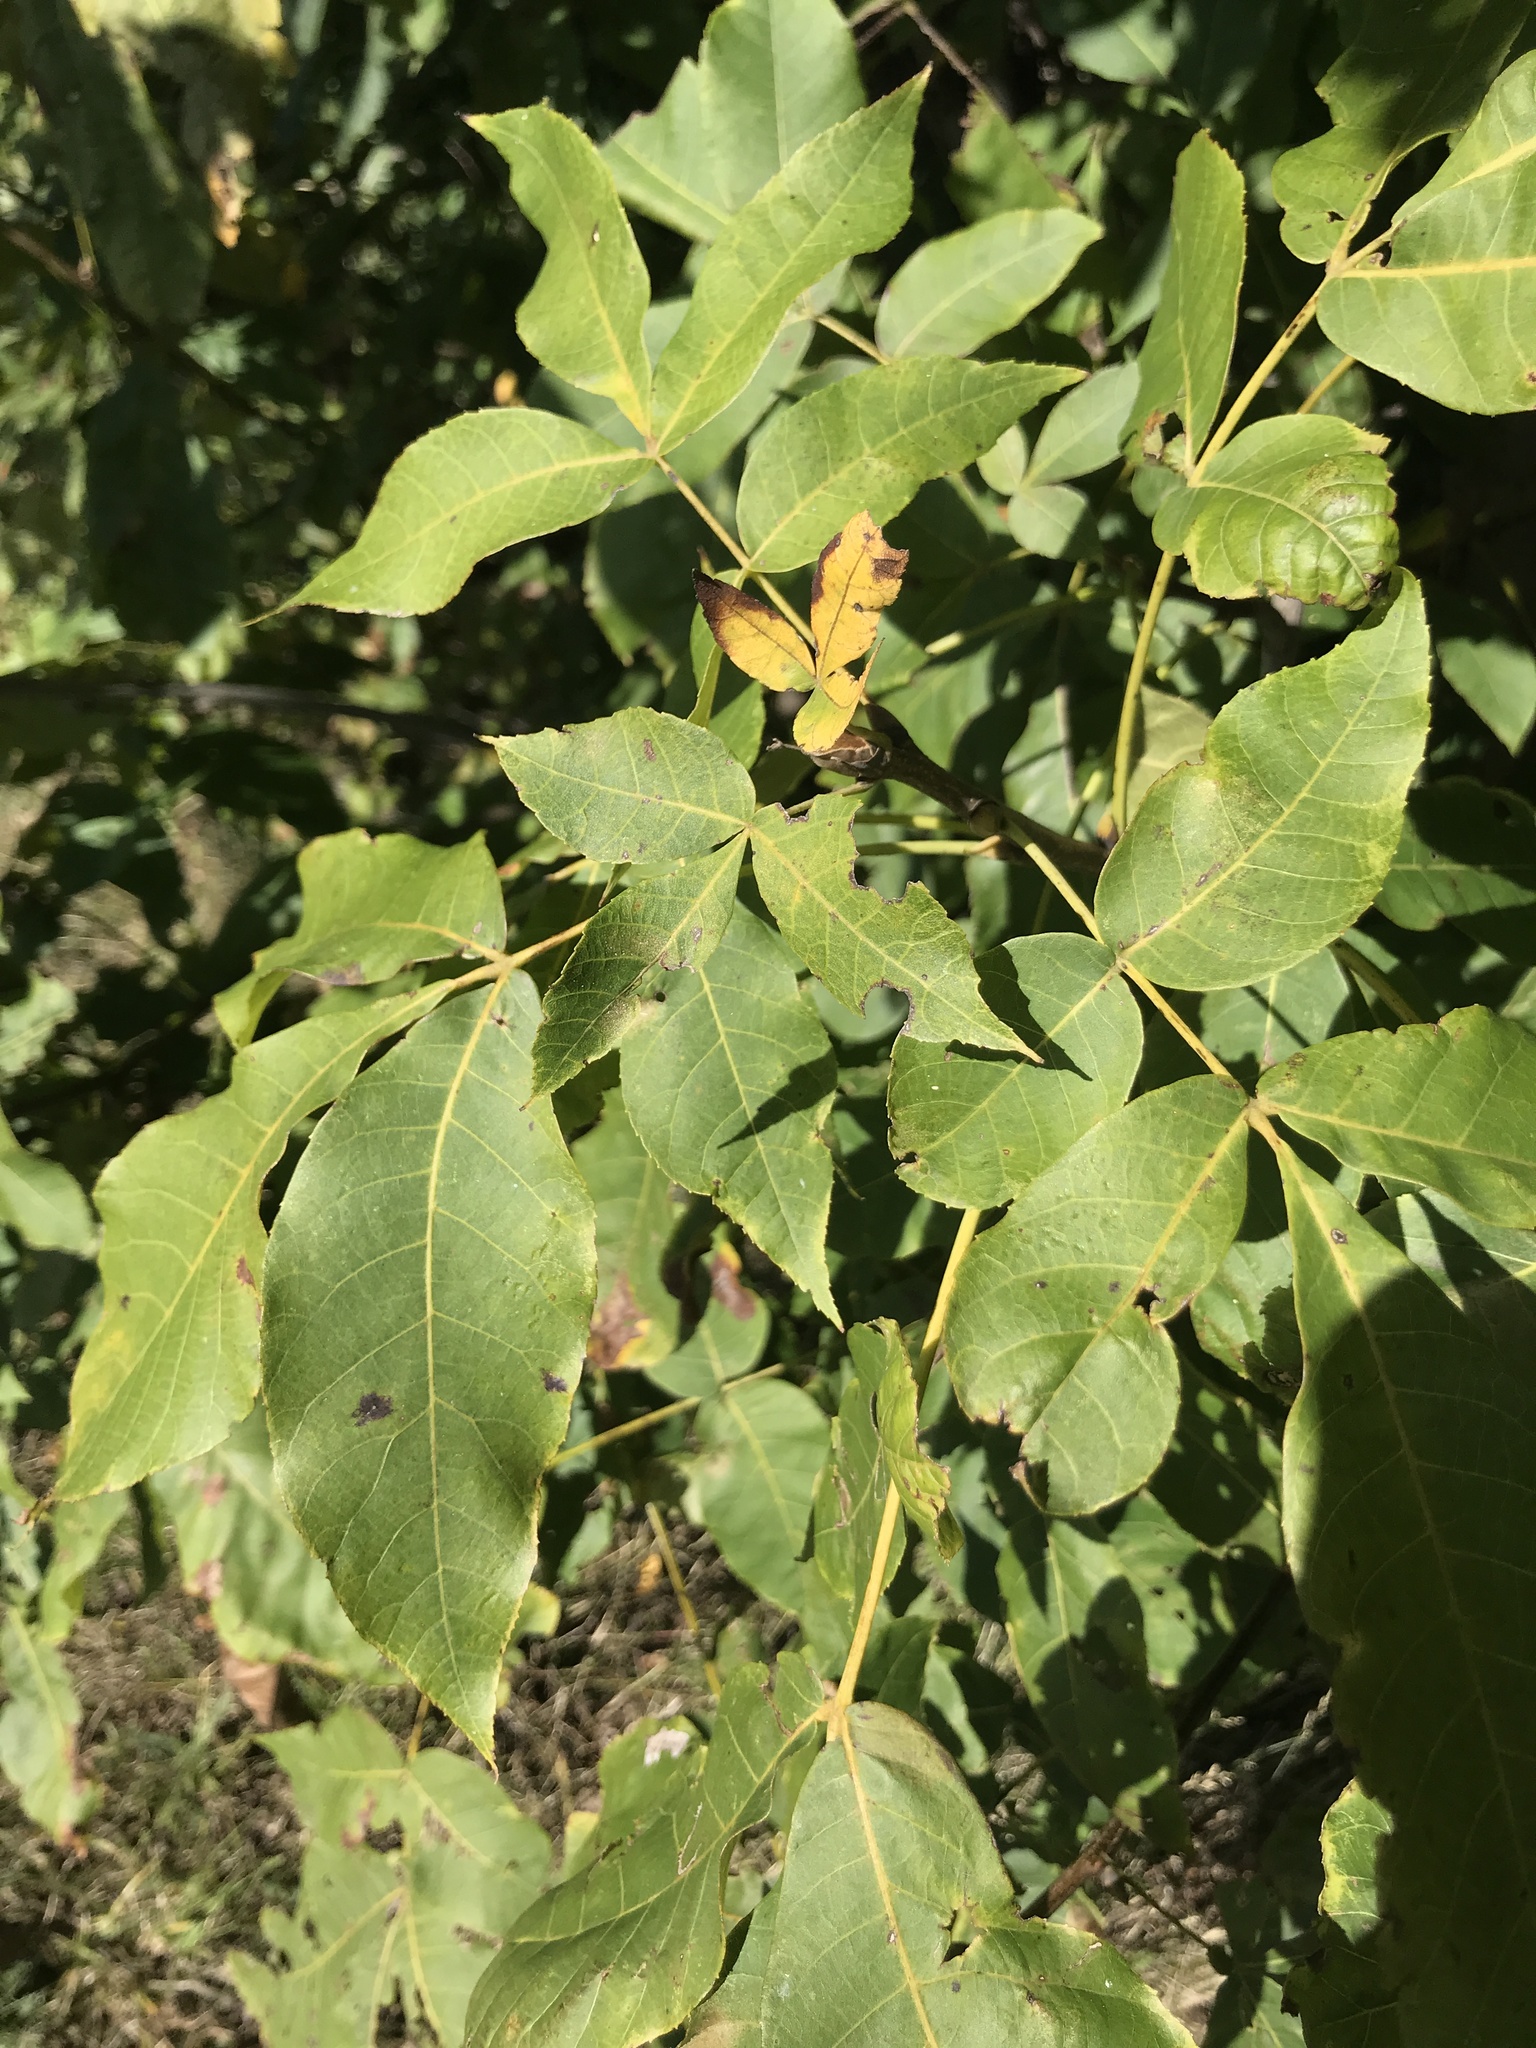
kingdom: Plantae
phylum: Tracheophyta
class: Magnoliopsida
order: Fagales
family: Juglandaceae
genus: Carya
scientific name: Carya ovata
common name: Shagbark hickory
